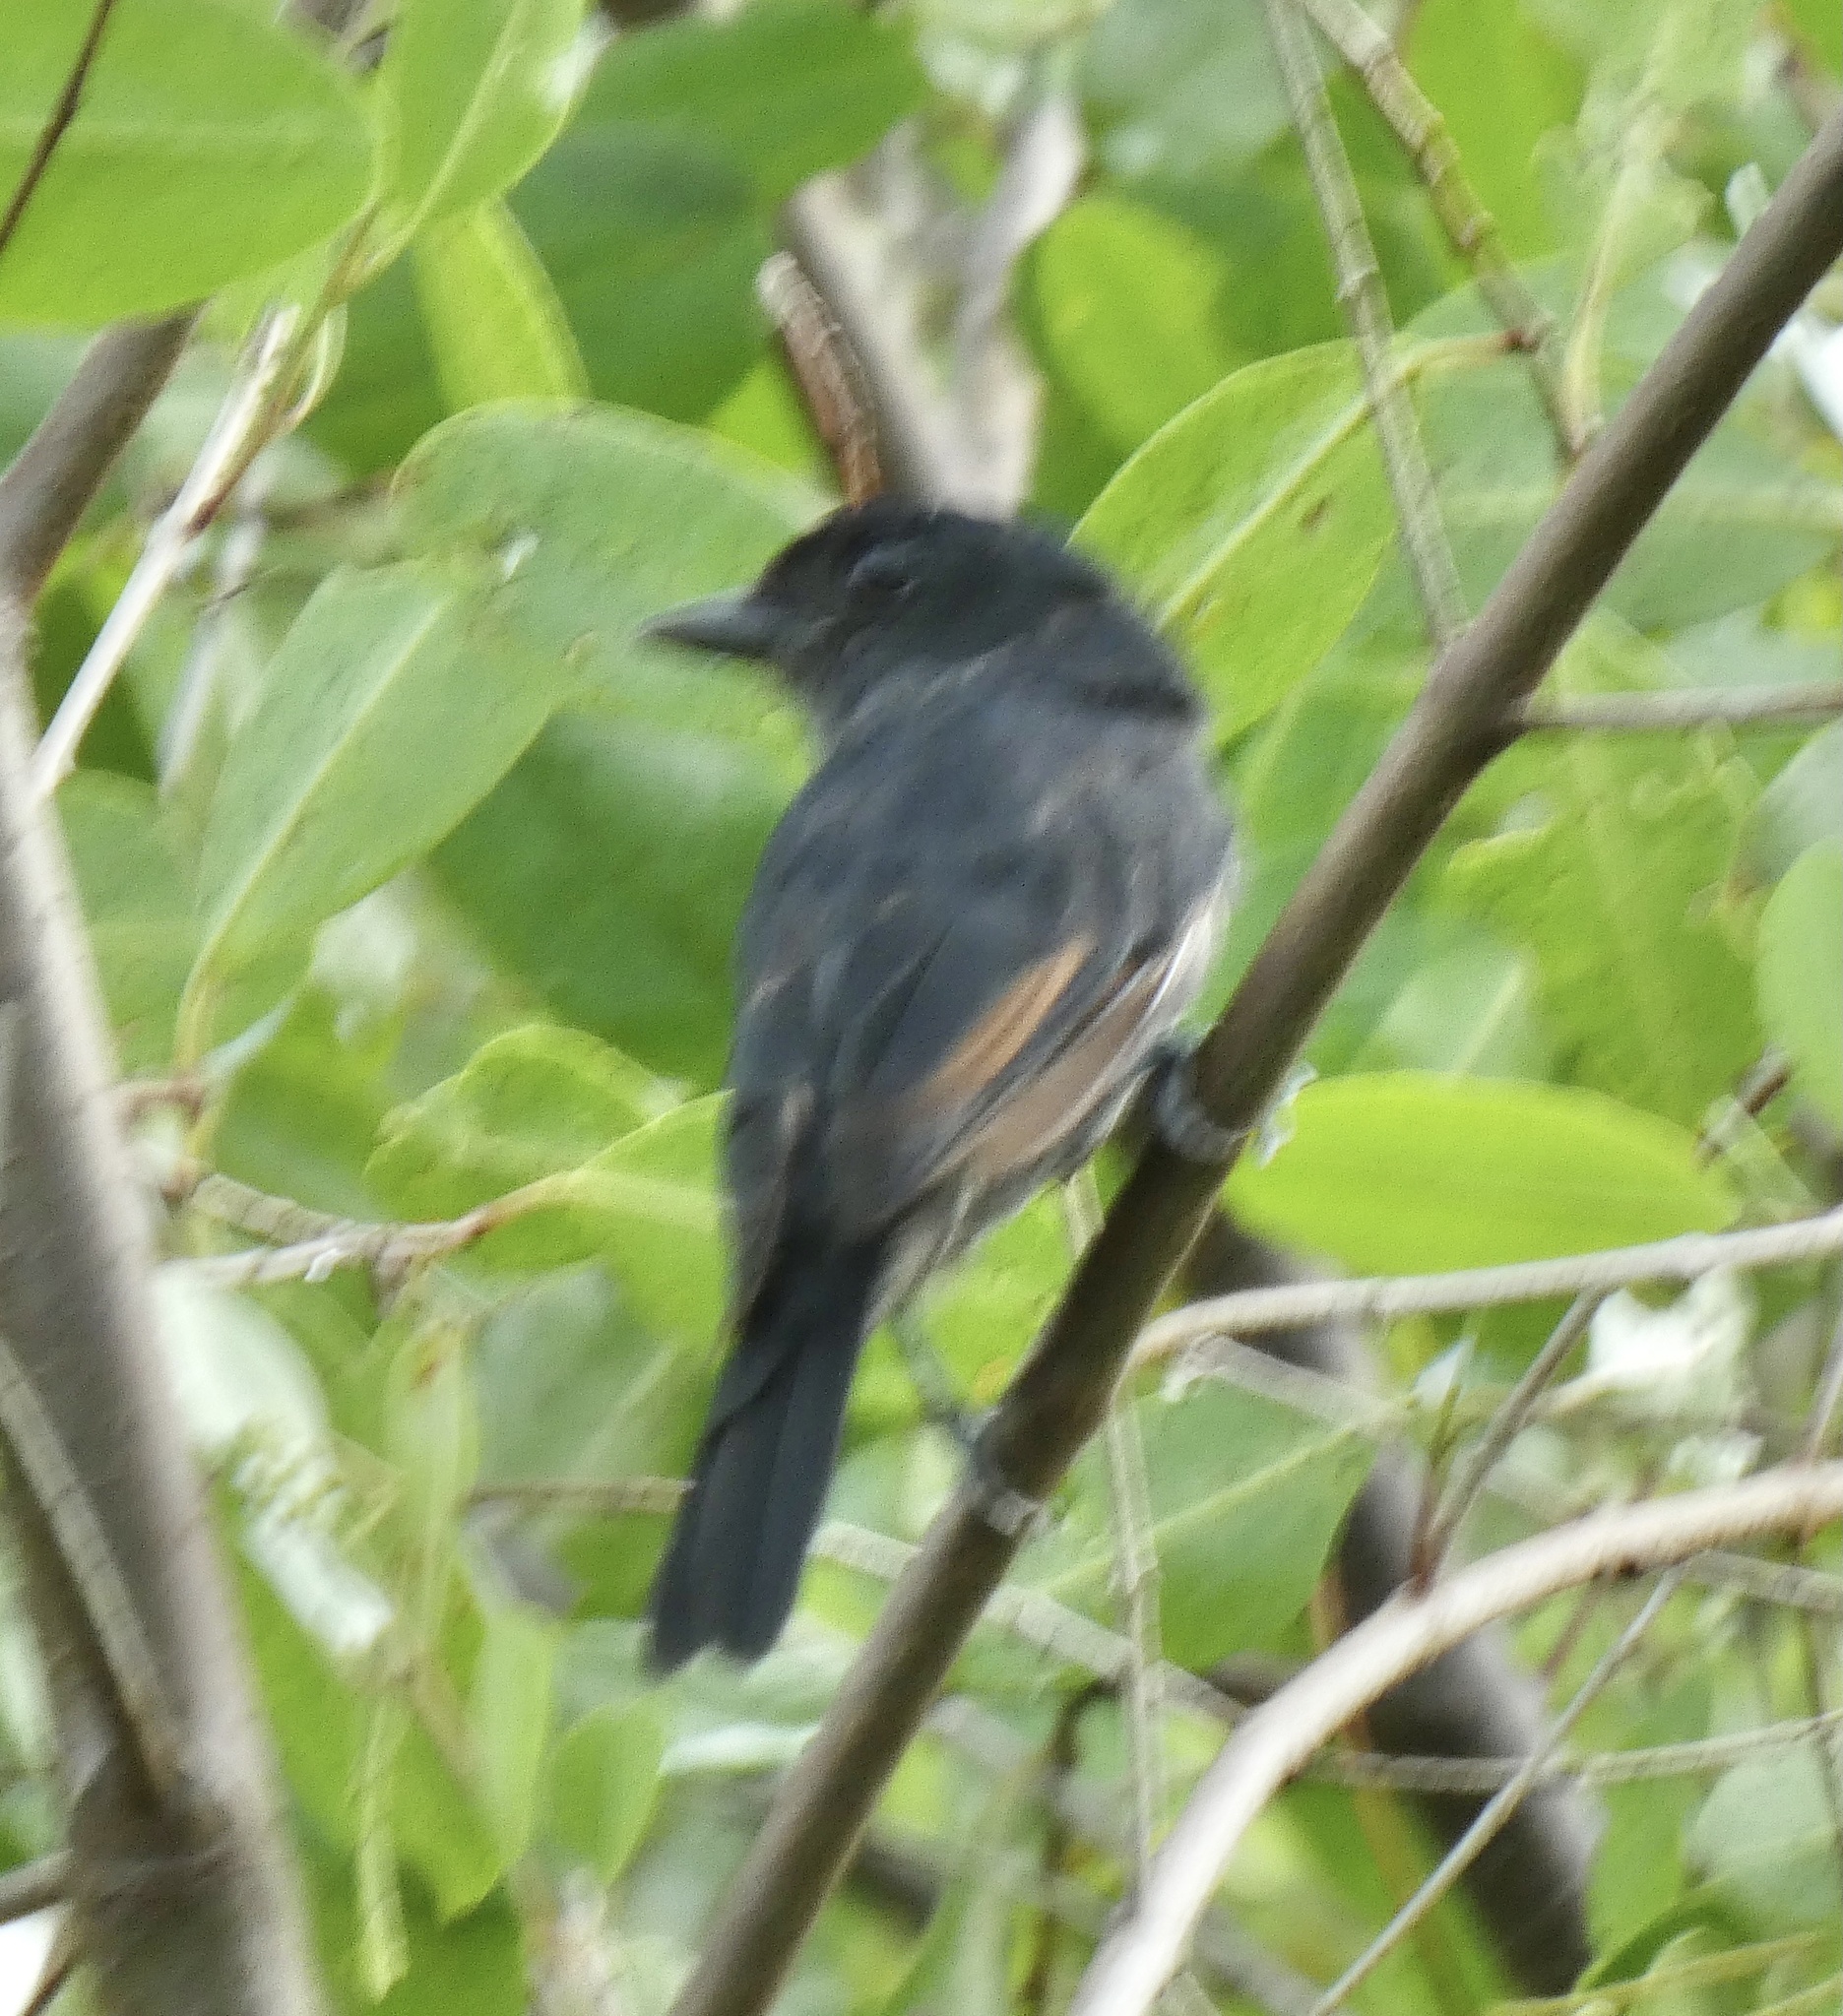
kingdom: Animalia
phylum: Chordata
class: Aves
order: Passeriformes
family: Cotingidae
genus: Pachyramphus
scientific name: Pachyramphus niger
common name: Jamaican becard
